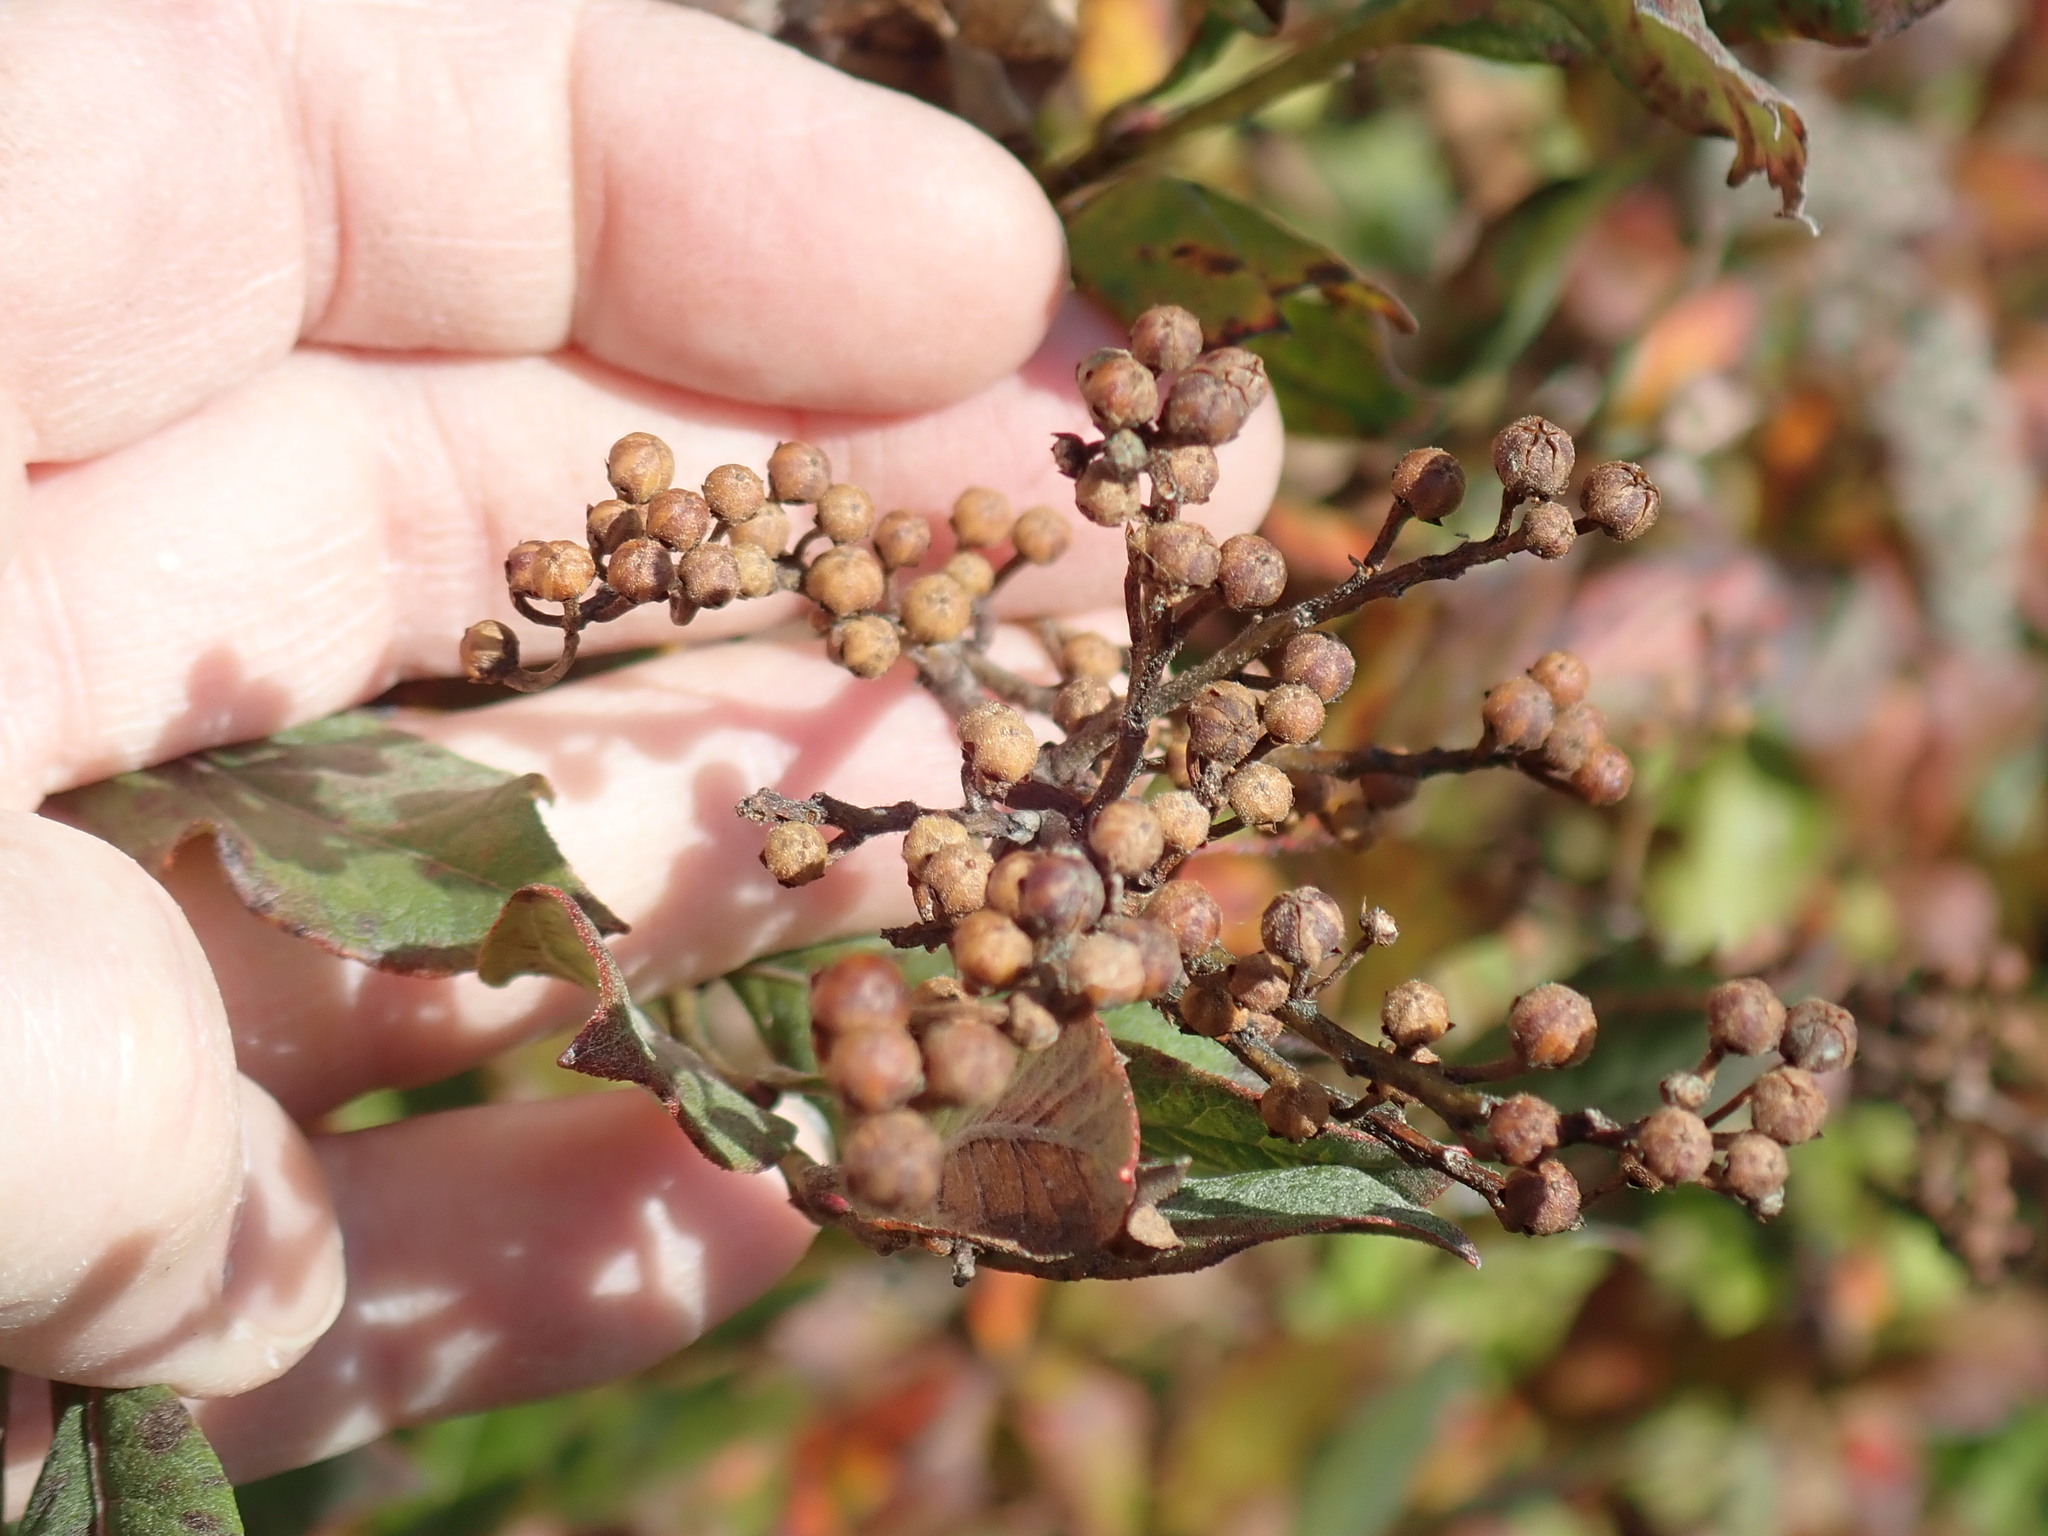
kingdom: Plantae
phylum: Tracheophyta
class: Magnoliopsida
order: Ericales
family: Ericaceae
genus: Lyonia
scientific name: Lyonia ligustrina
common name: Maleberry
